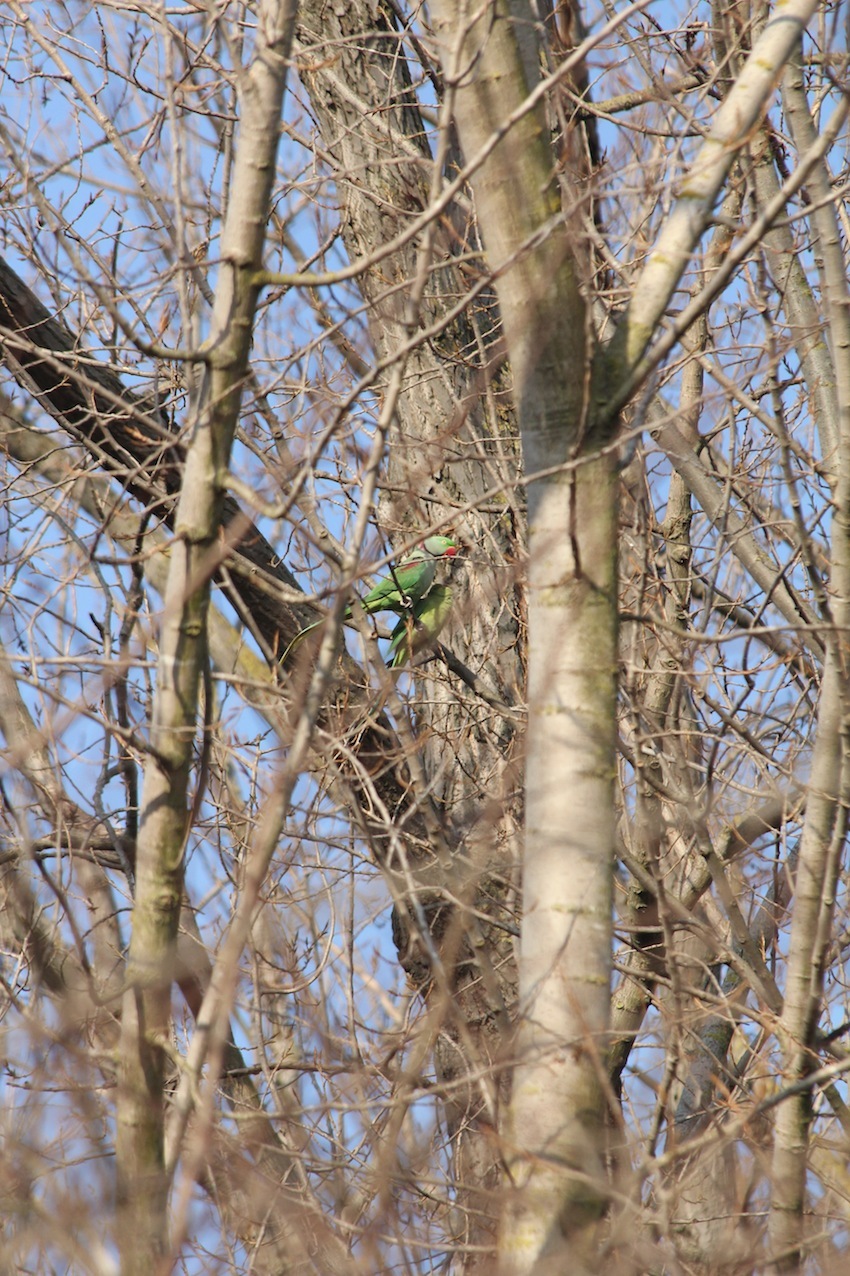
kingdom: Animalia
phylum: Chordata
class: Aves
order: Psittaciformes
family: Psittacidae
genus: Psittacula
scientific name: Psittacula eupatria
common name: Alexandrine parakeet
